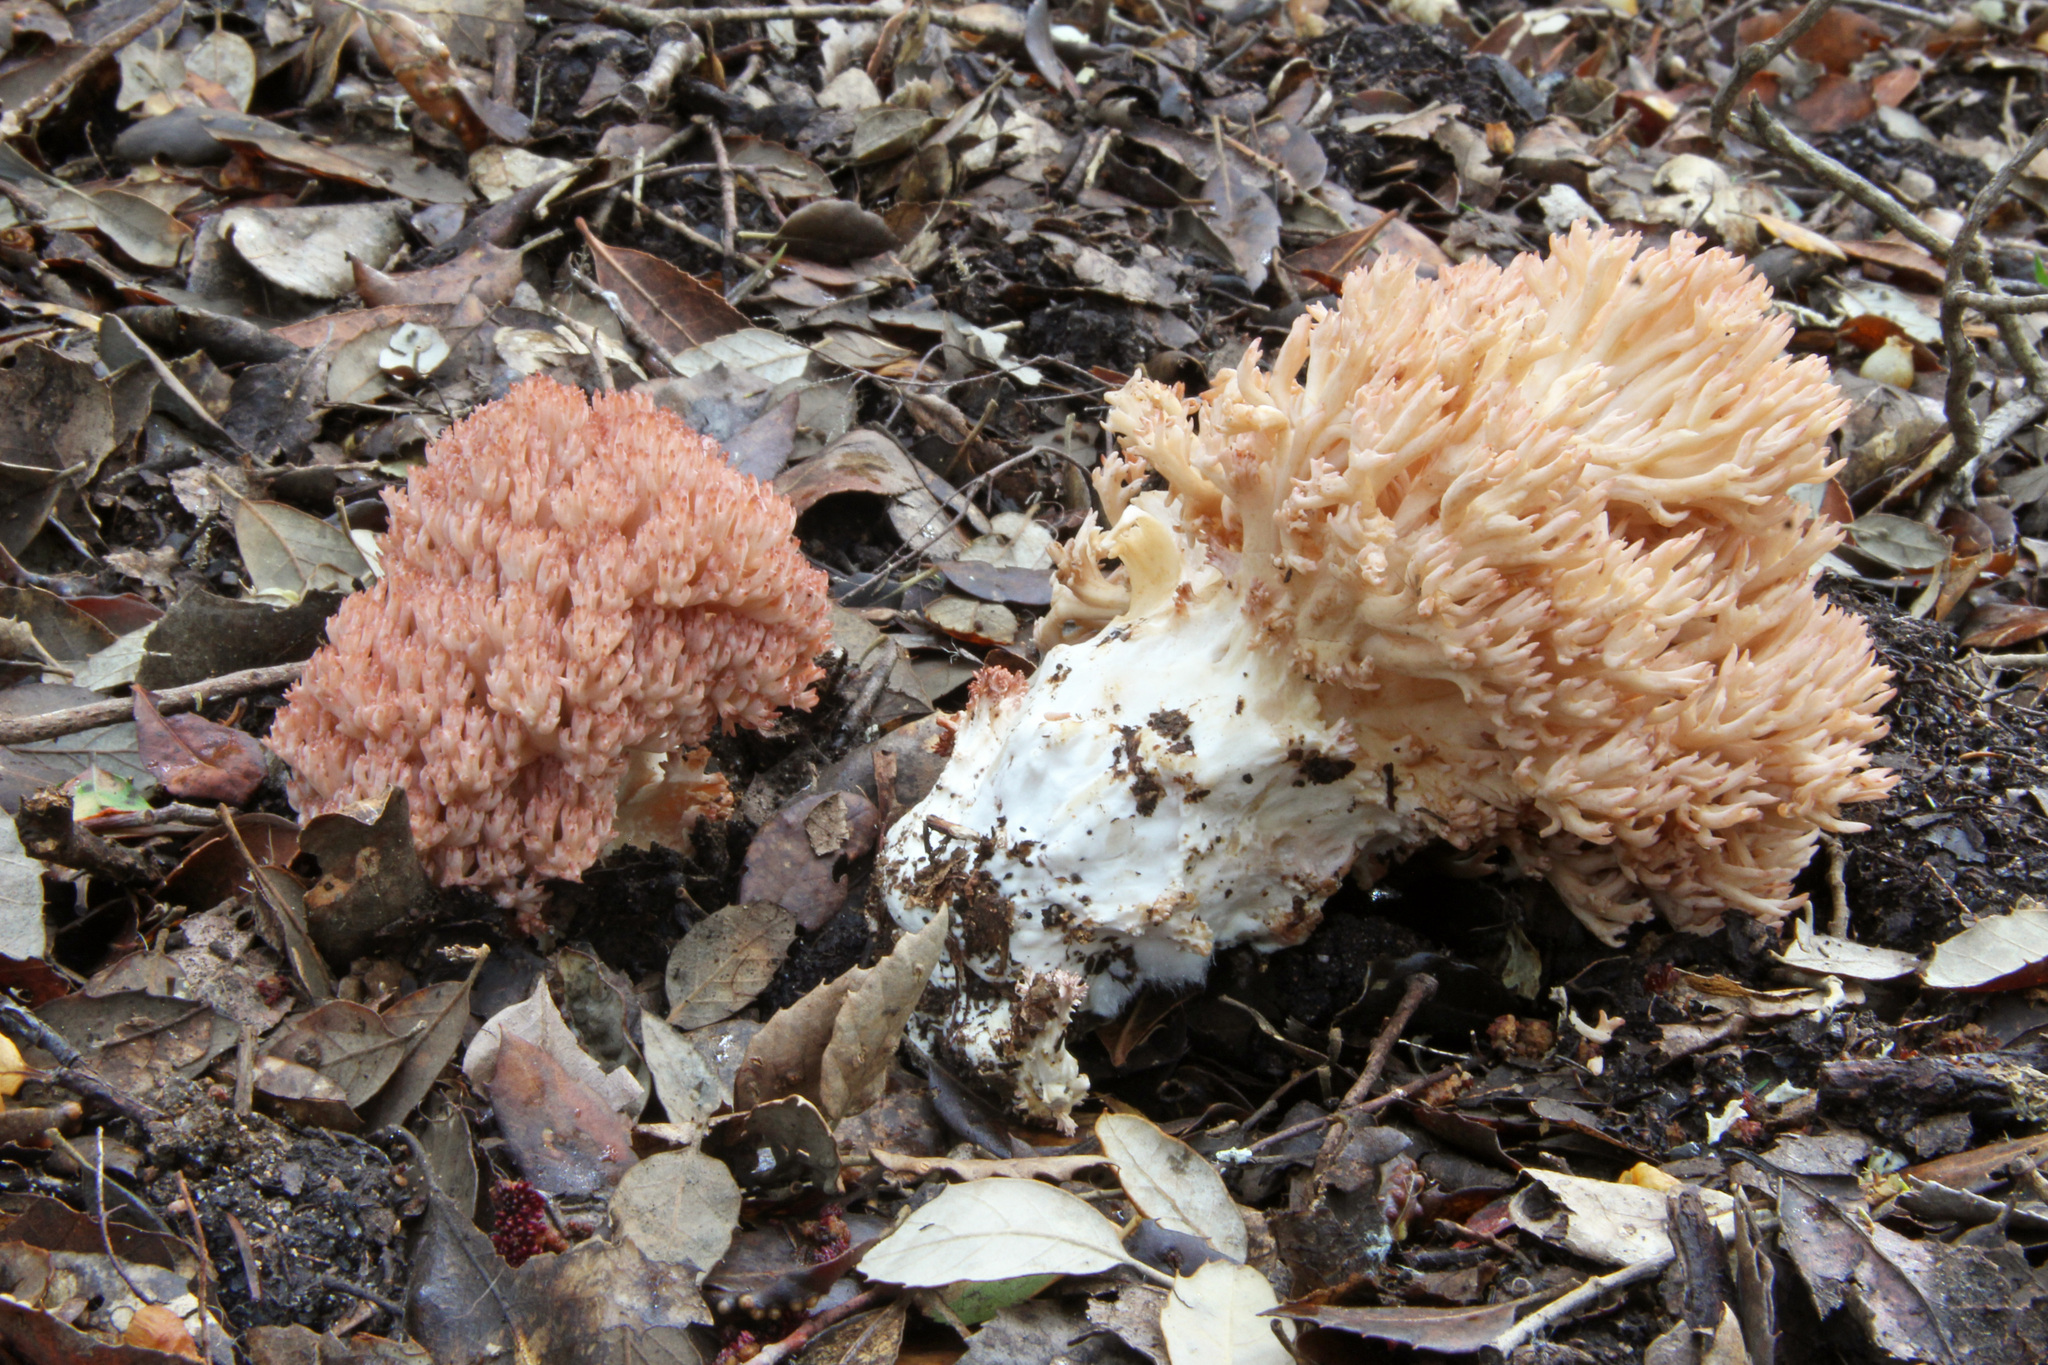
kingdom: Fungi
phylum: Basidiomycota
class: Agaricomycetes
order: Gomphales
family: Gomphaceae
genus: Ramaria
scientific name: Ramaria botrytis
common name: Rosso coral
